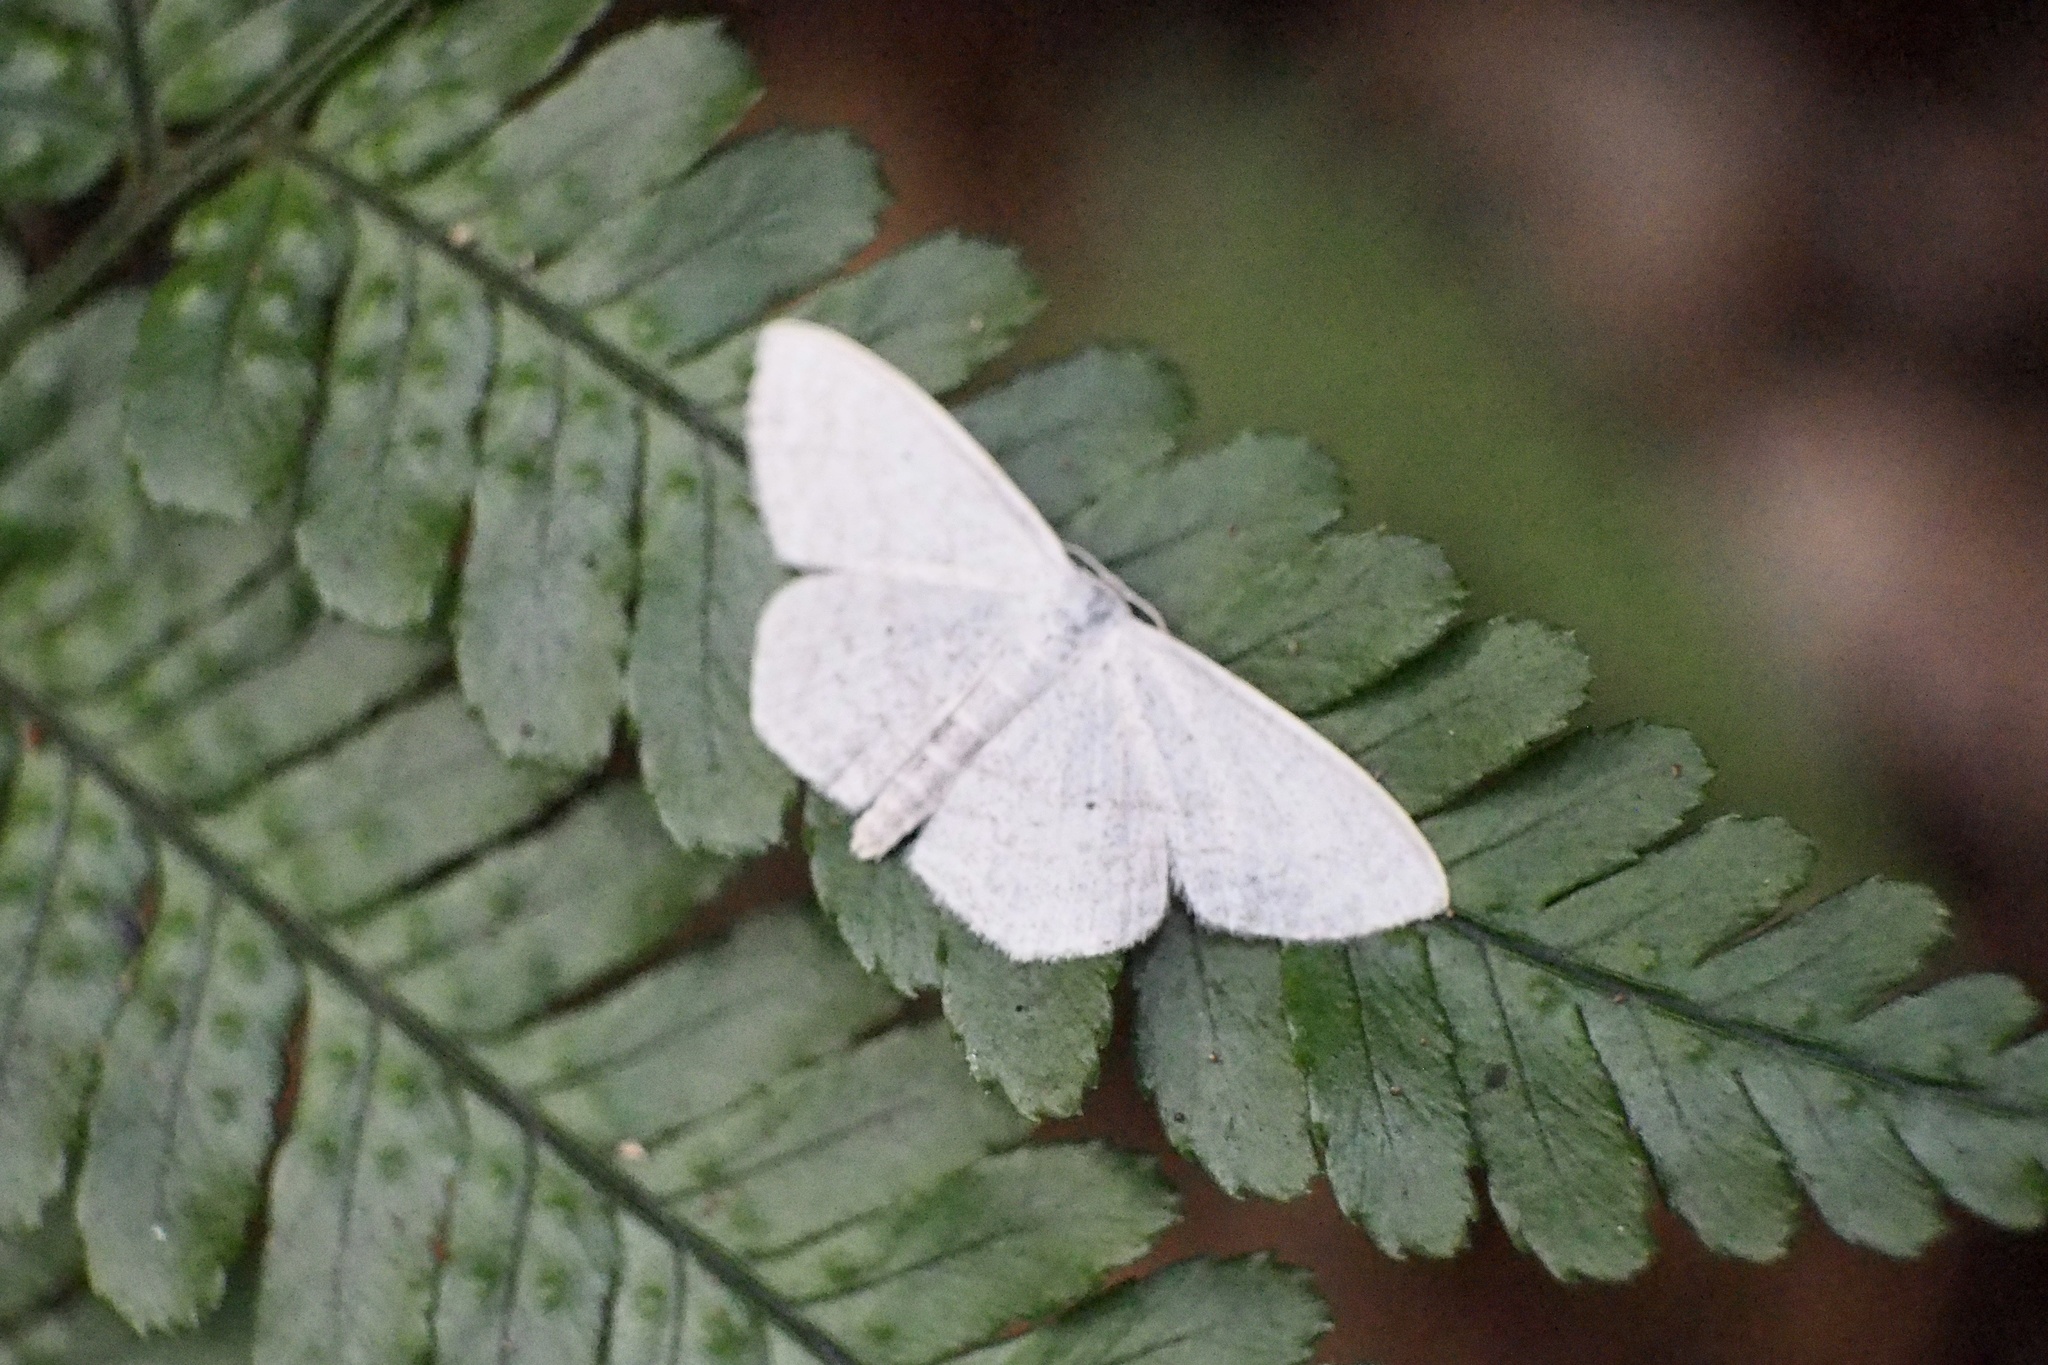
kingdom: Animalia
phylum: Arthropoda
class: Insecta
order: Lepidoptera
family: Geometridae
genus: Scopula
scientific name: Scopula ignobilis
